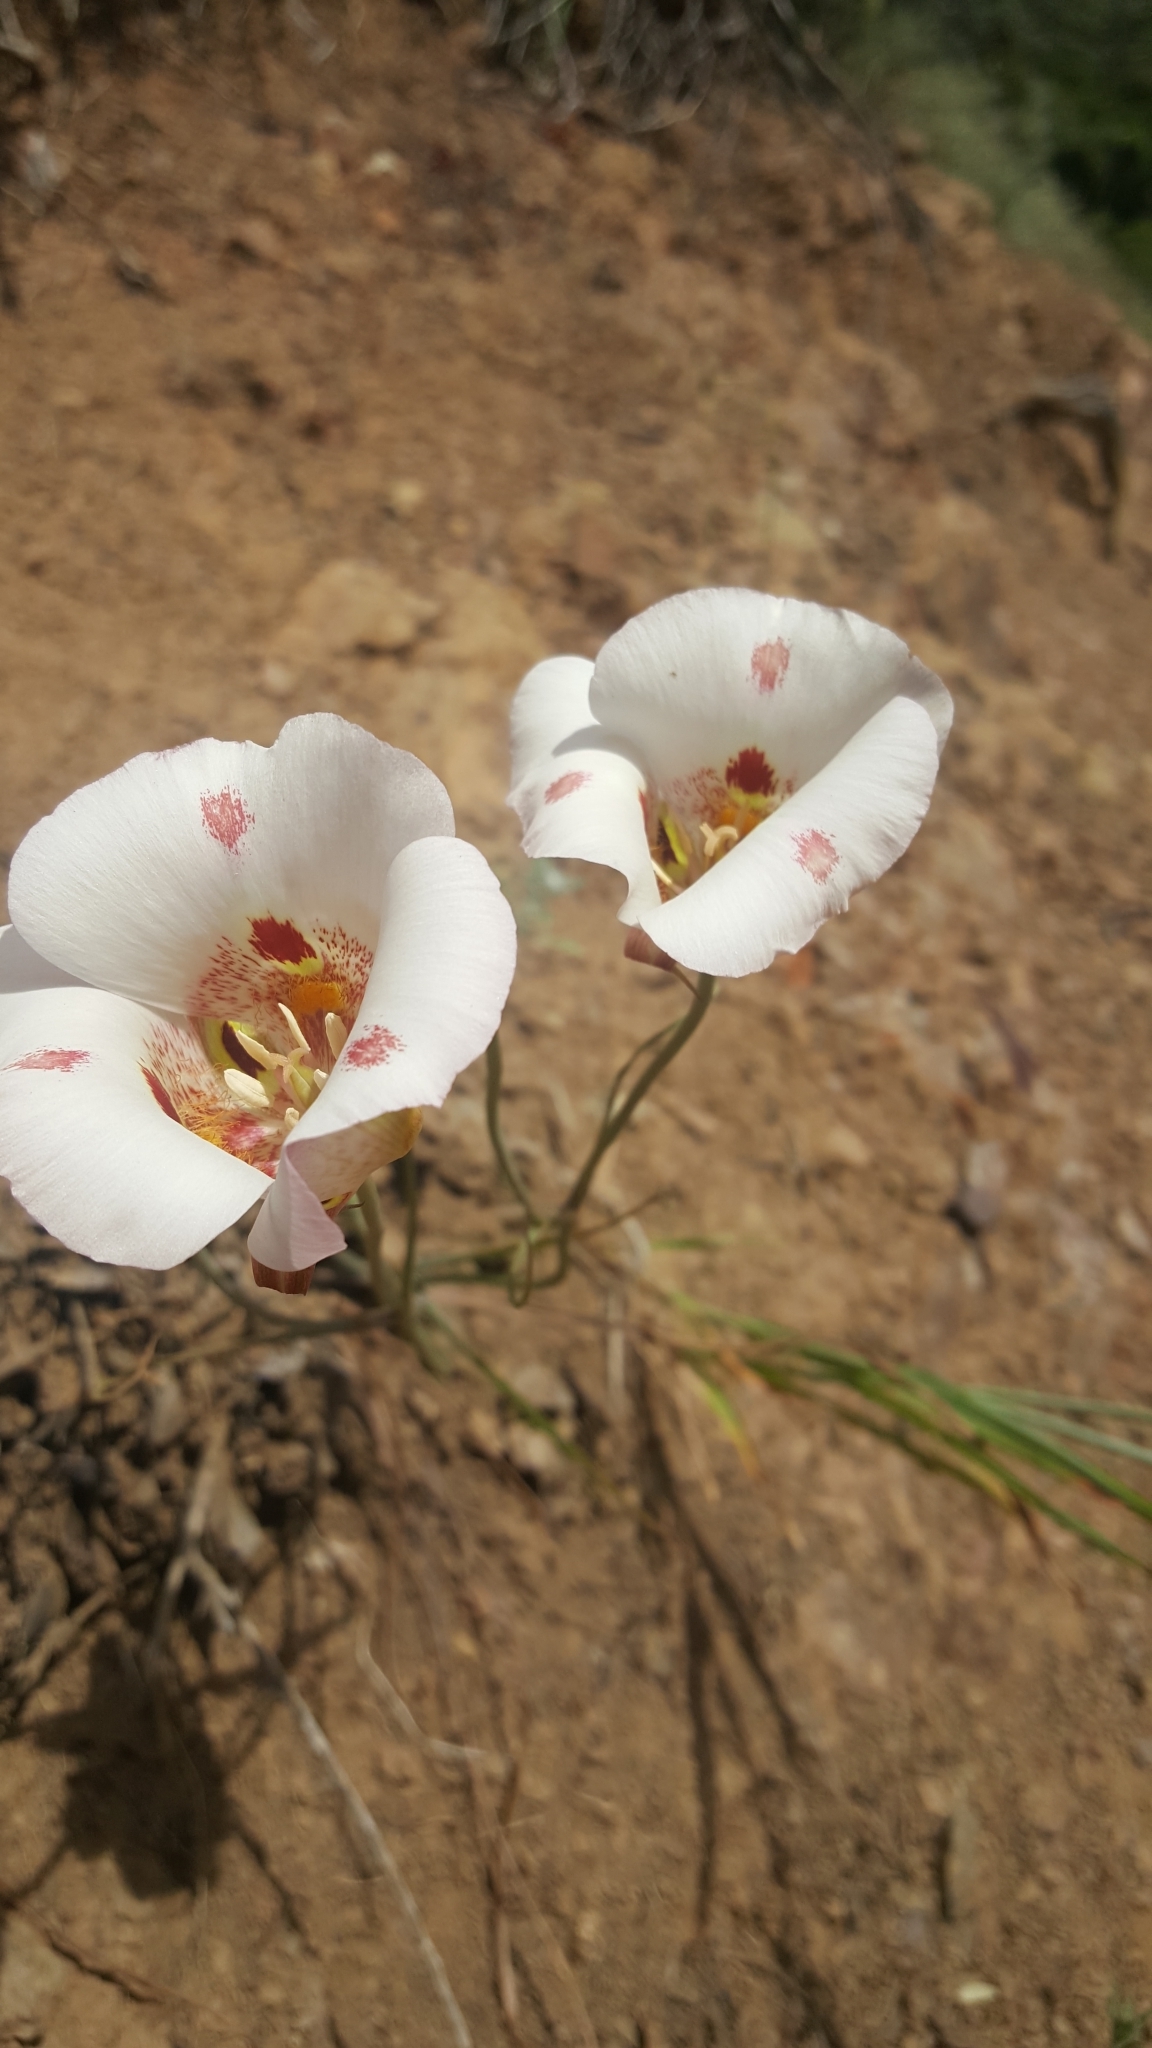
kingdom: Plantae
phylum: Tracheophyta
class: Liliopsida
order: Liliales
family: Liliaceae
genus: Calochortus
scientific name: Calochortus venustus
